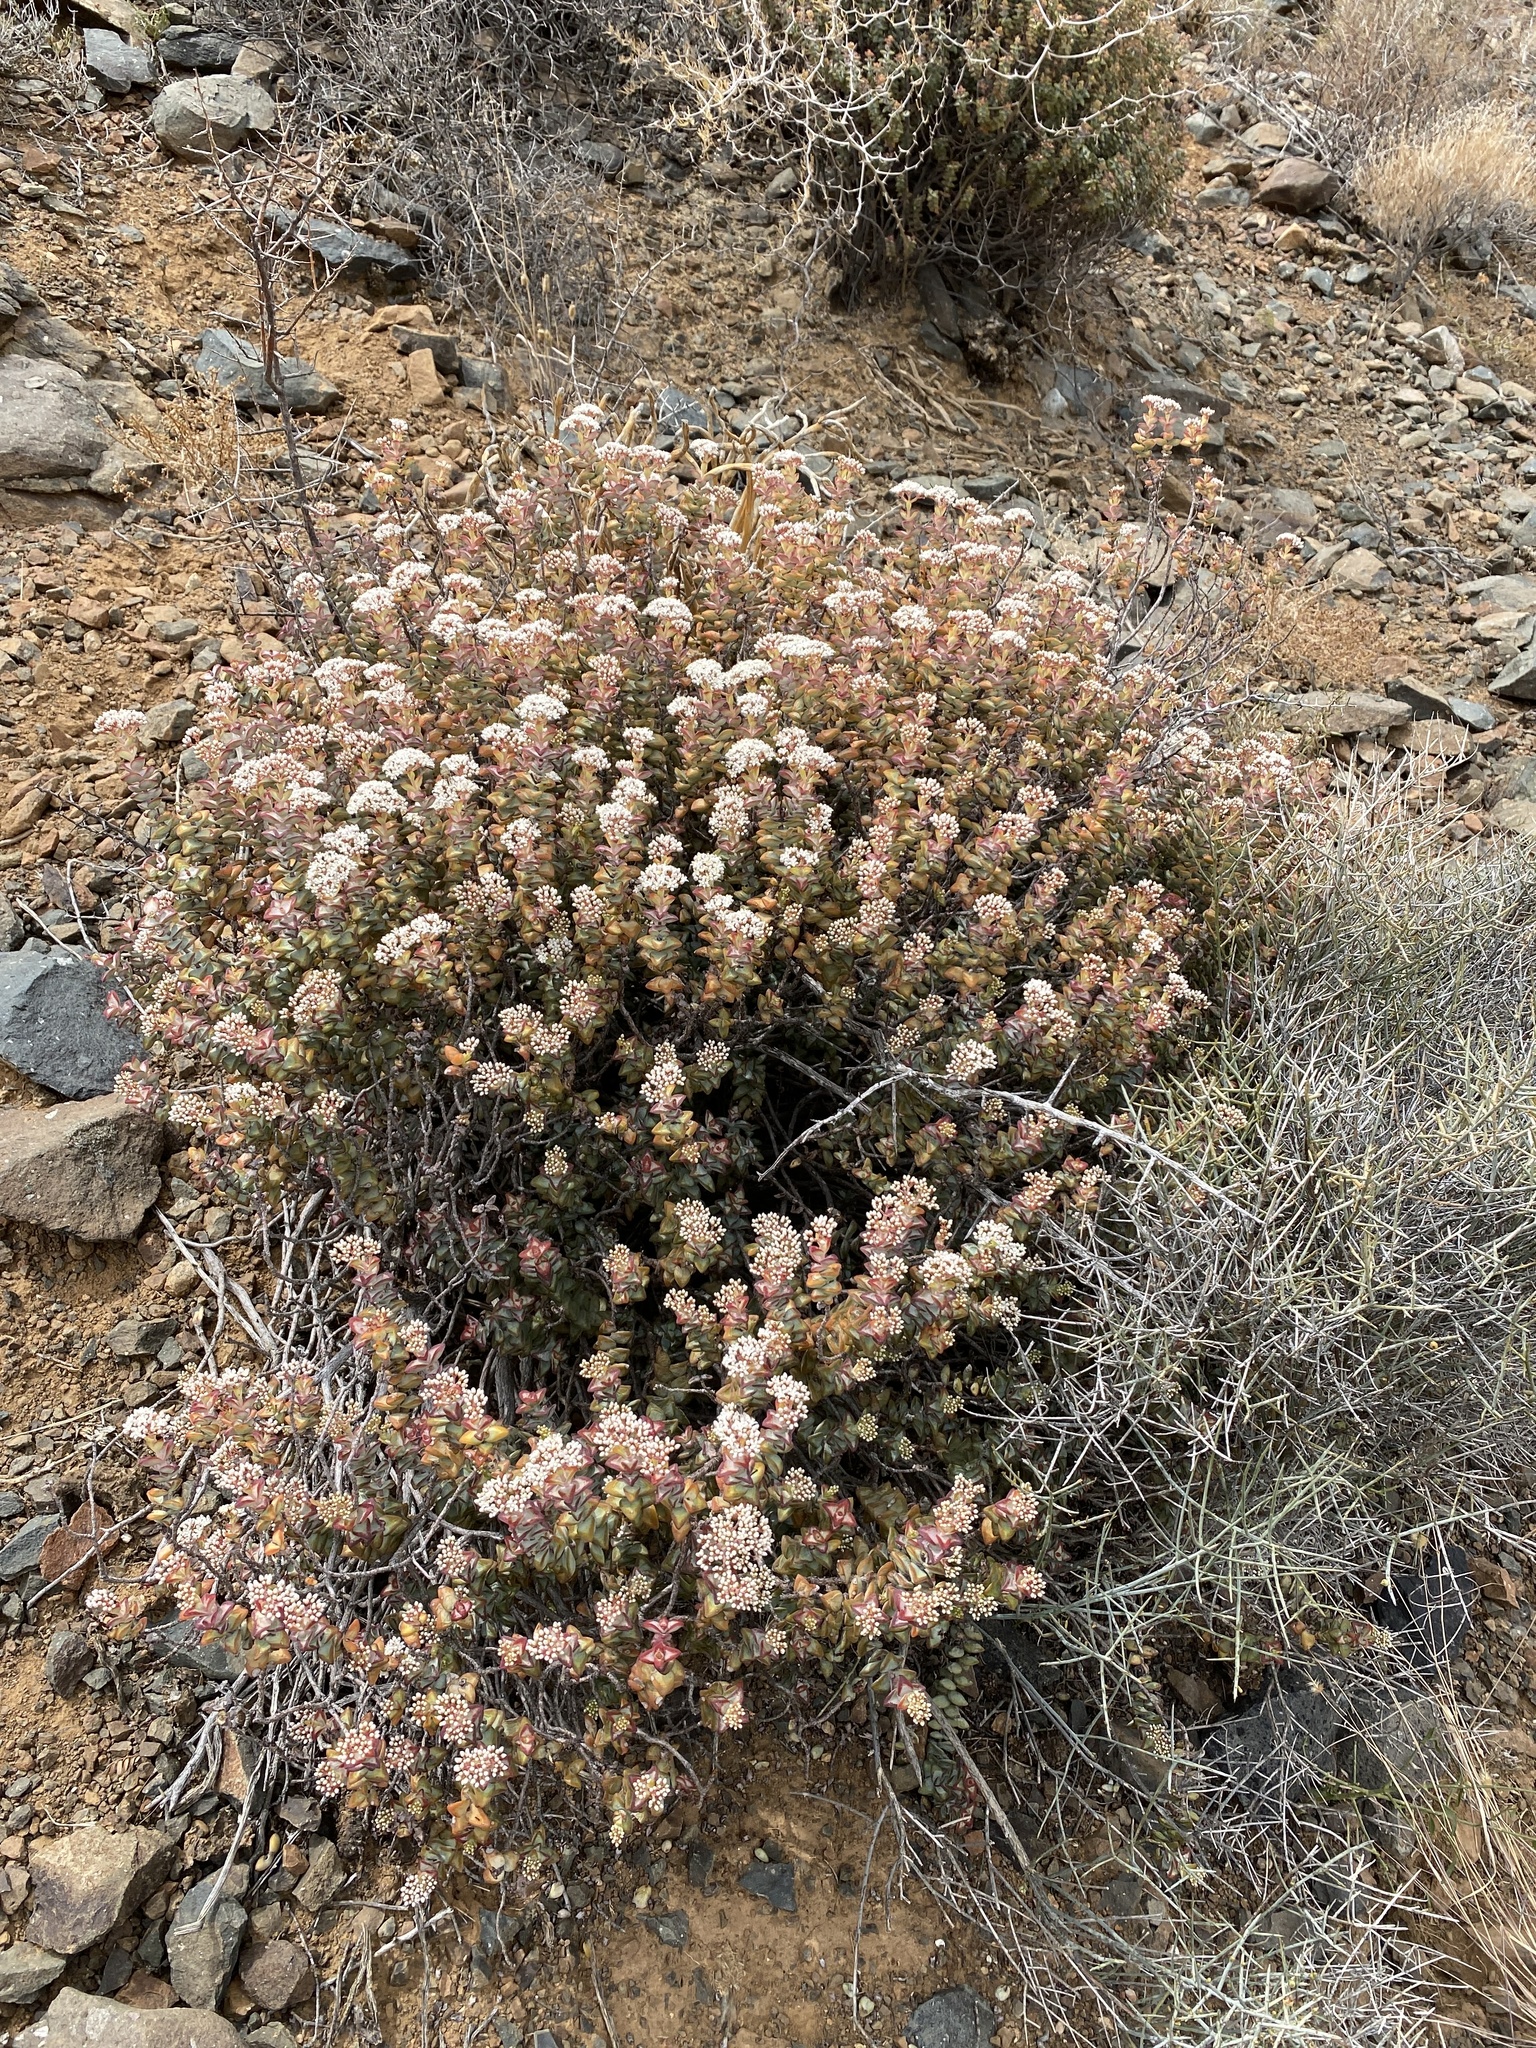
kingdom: Plantae
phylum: Tracheophyta
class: Magnoliopsida
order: Saxifragales
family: Crassulaceae
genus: Crassula
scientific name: Crassula rupestris
